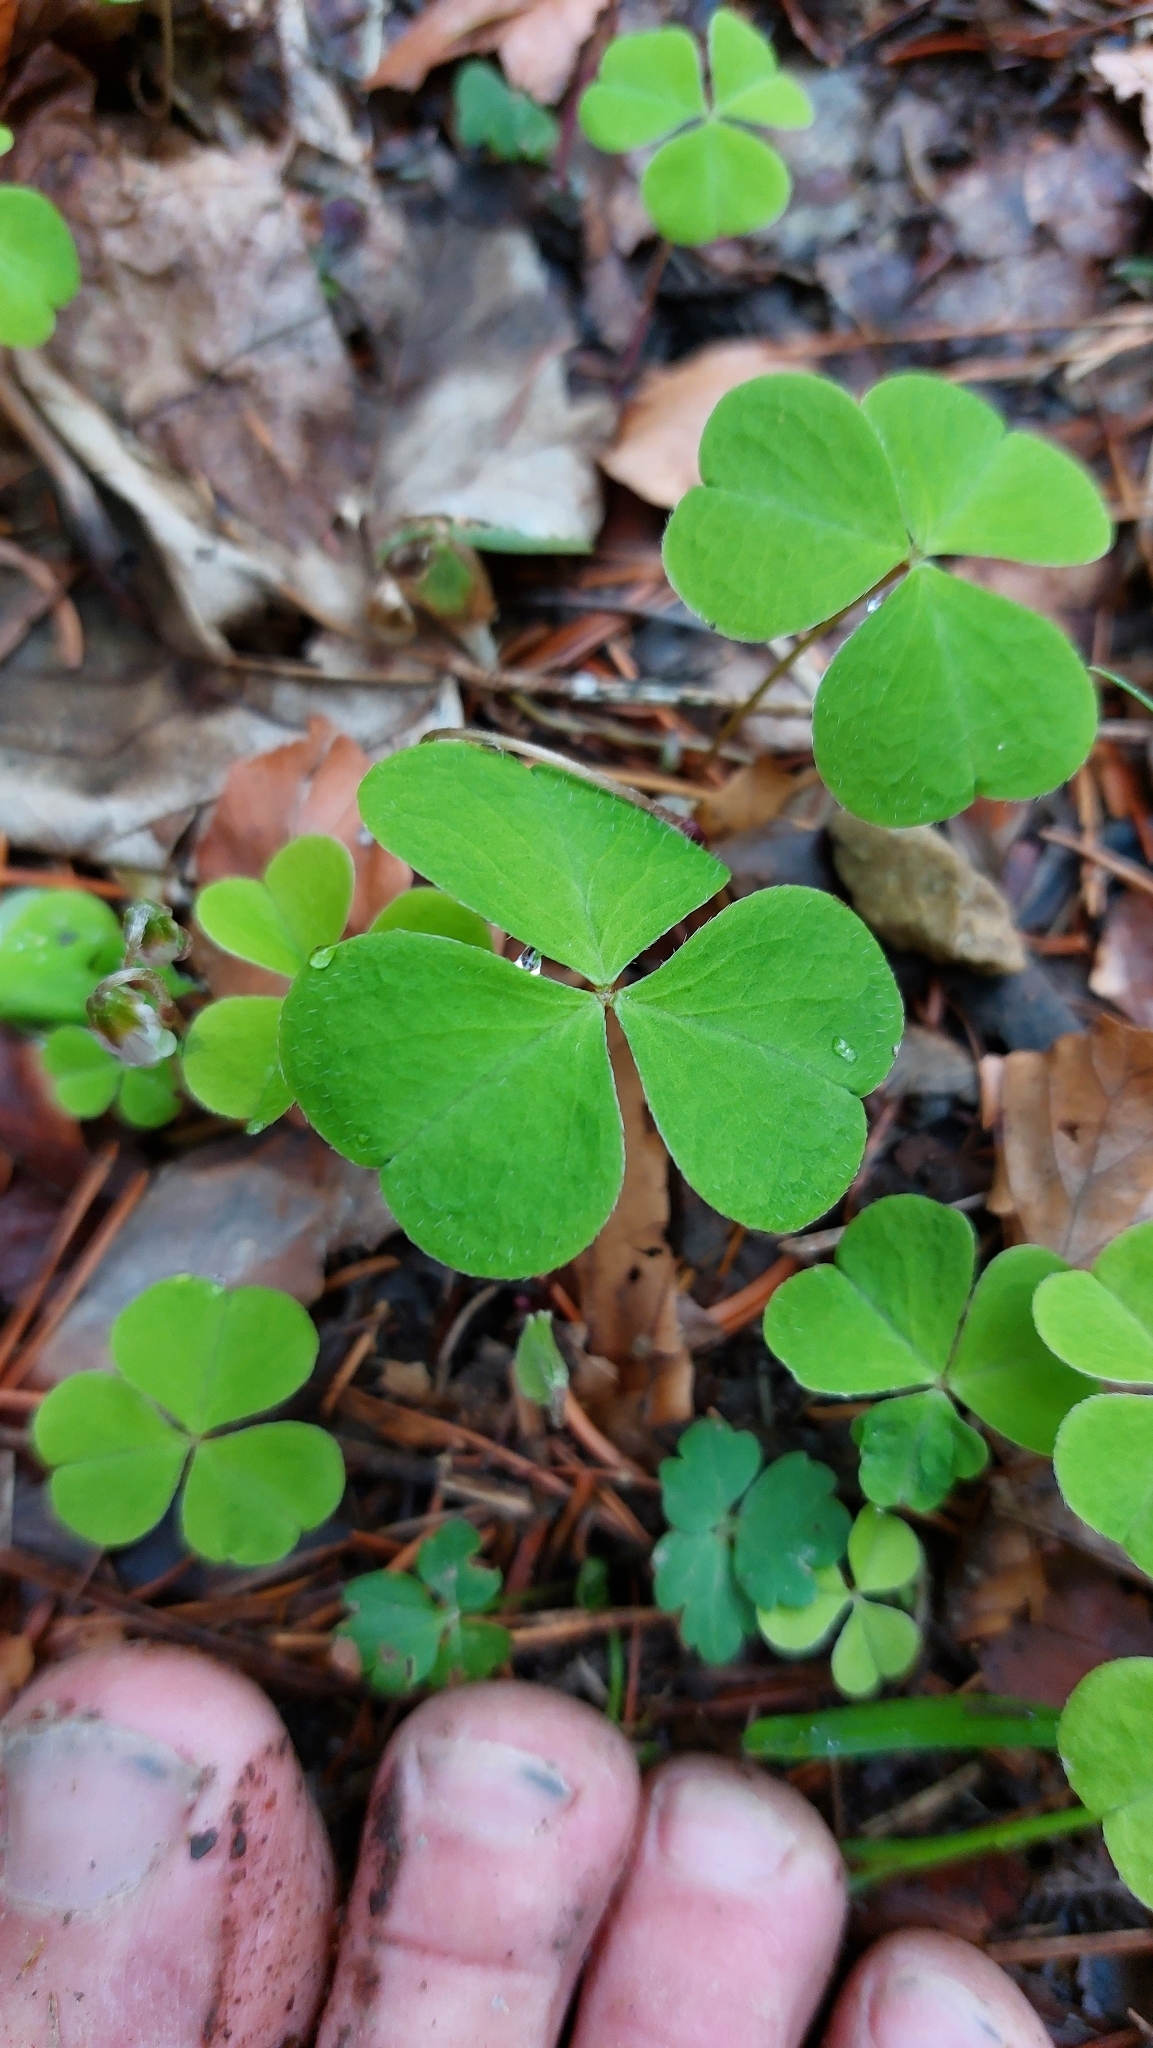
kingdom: Plantae
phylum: Tracheophyta
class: Magnoliopsida
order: Oxalidales
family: Oxalidaceae
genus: Oxalis
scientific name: Oxalis acetosella
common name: Wood-sorrel
